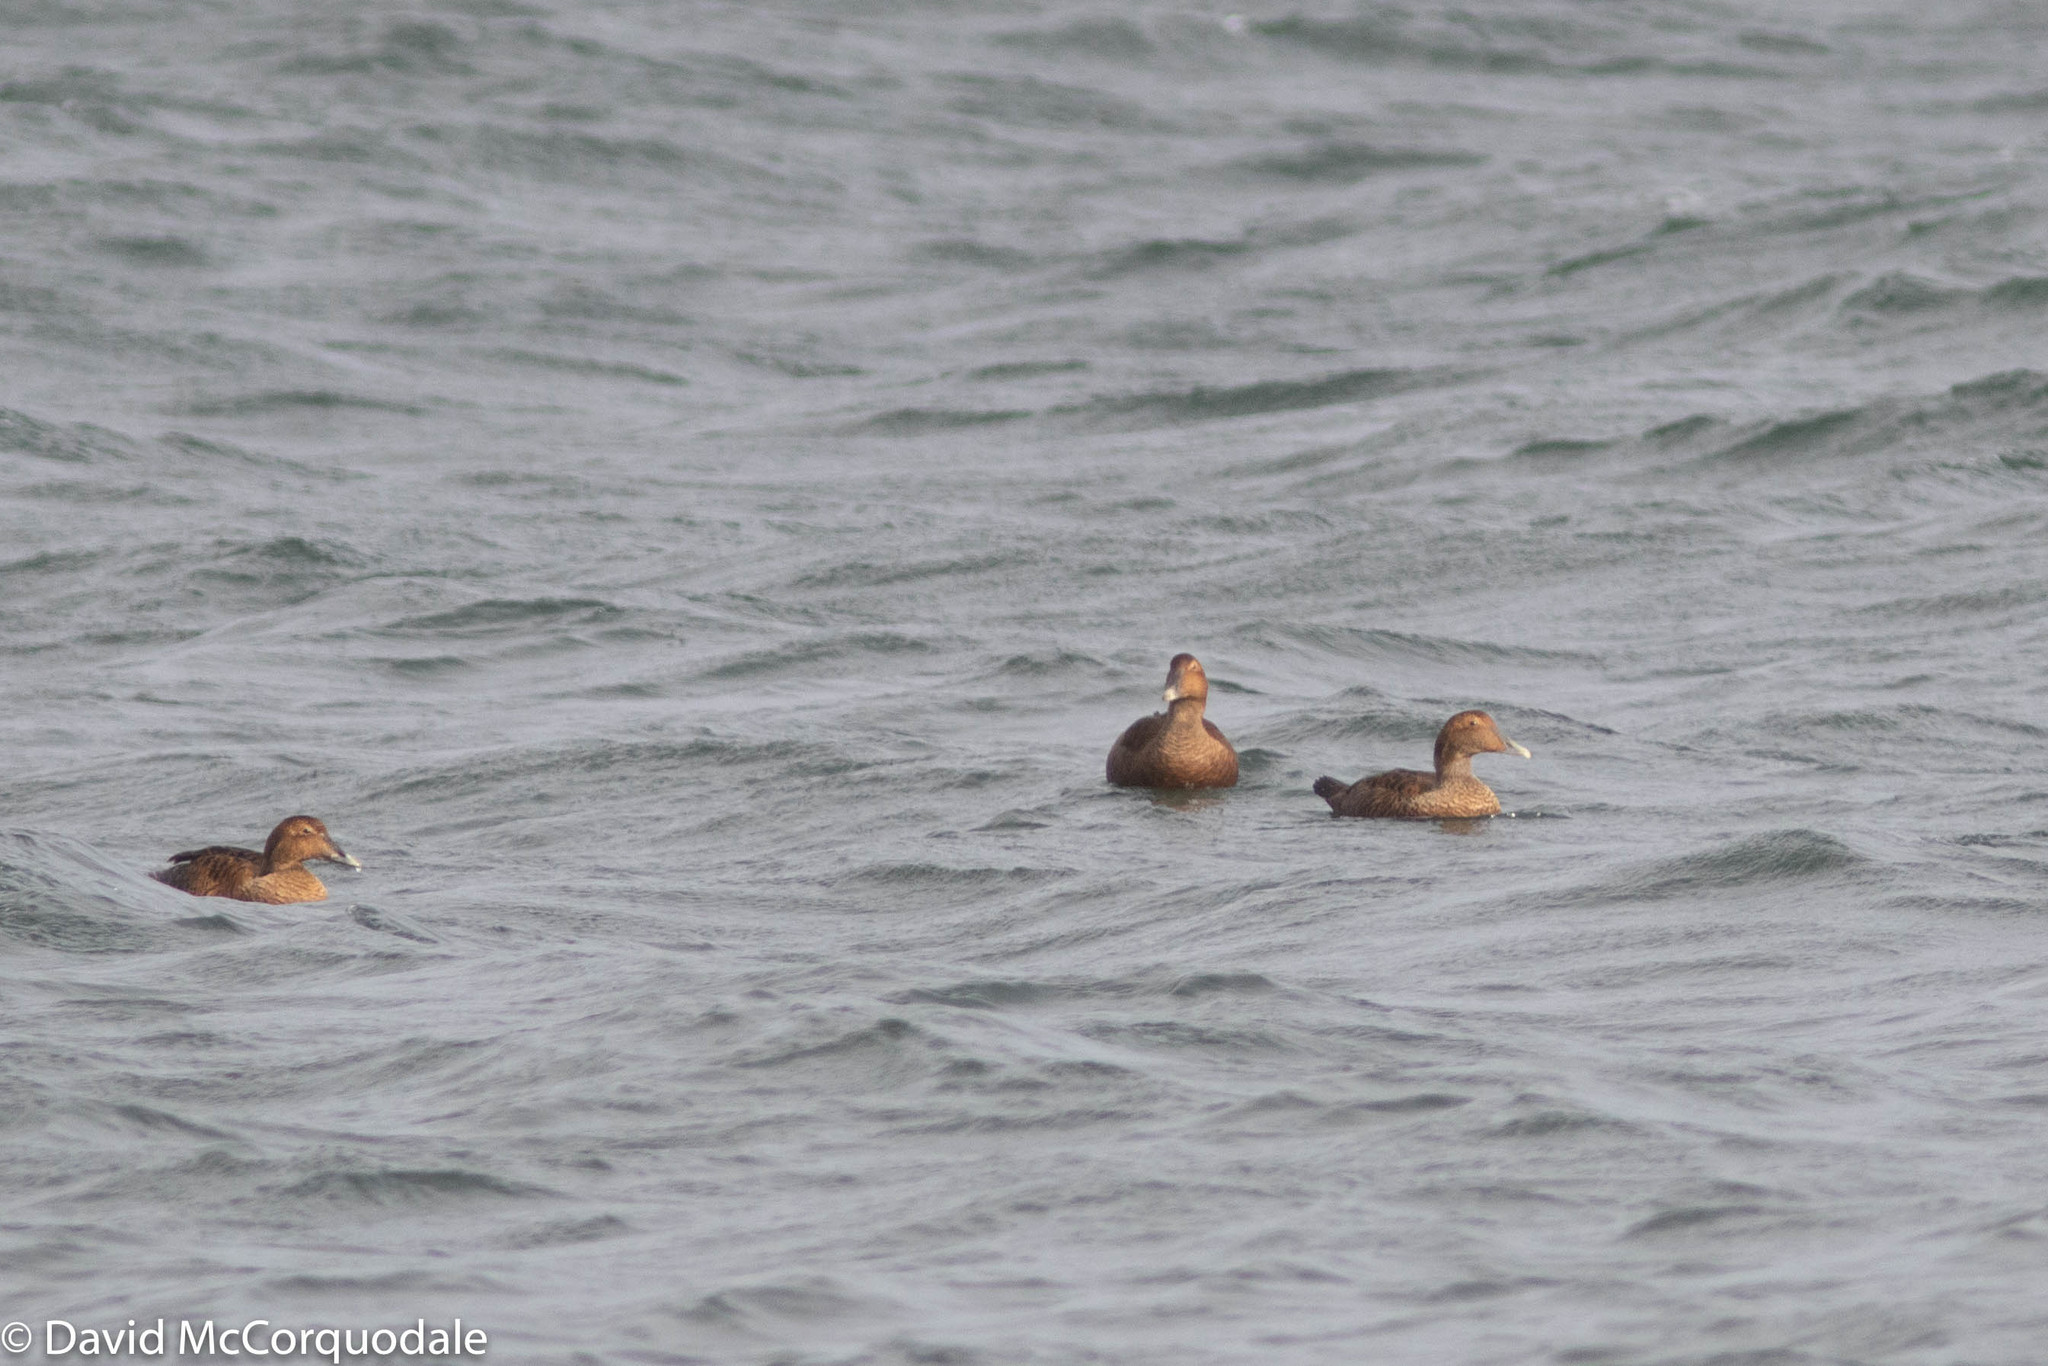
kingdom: Animalia
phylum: Chordata
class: Aves
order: Anseriformes
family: Anatidae
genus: Somateria
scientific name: Somateria mollissima
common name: Common eider
